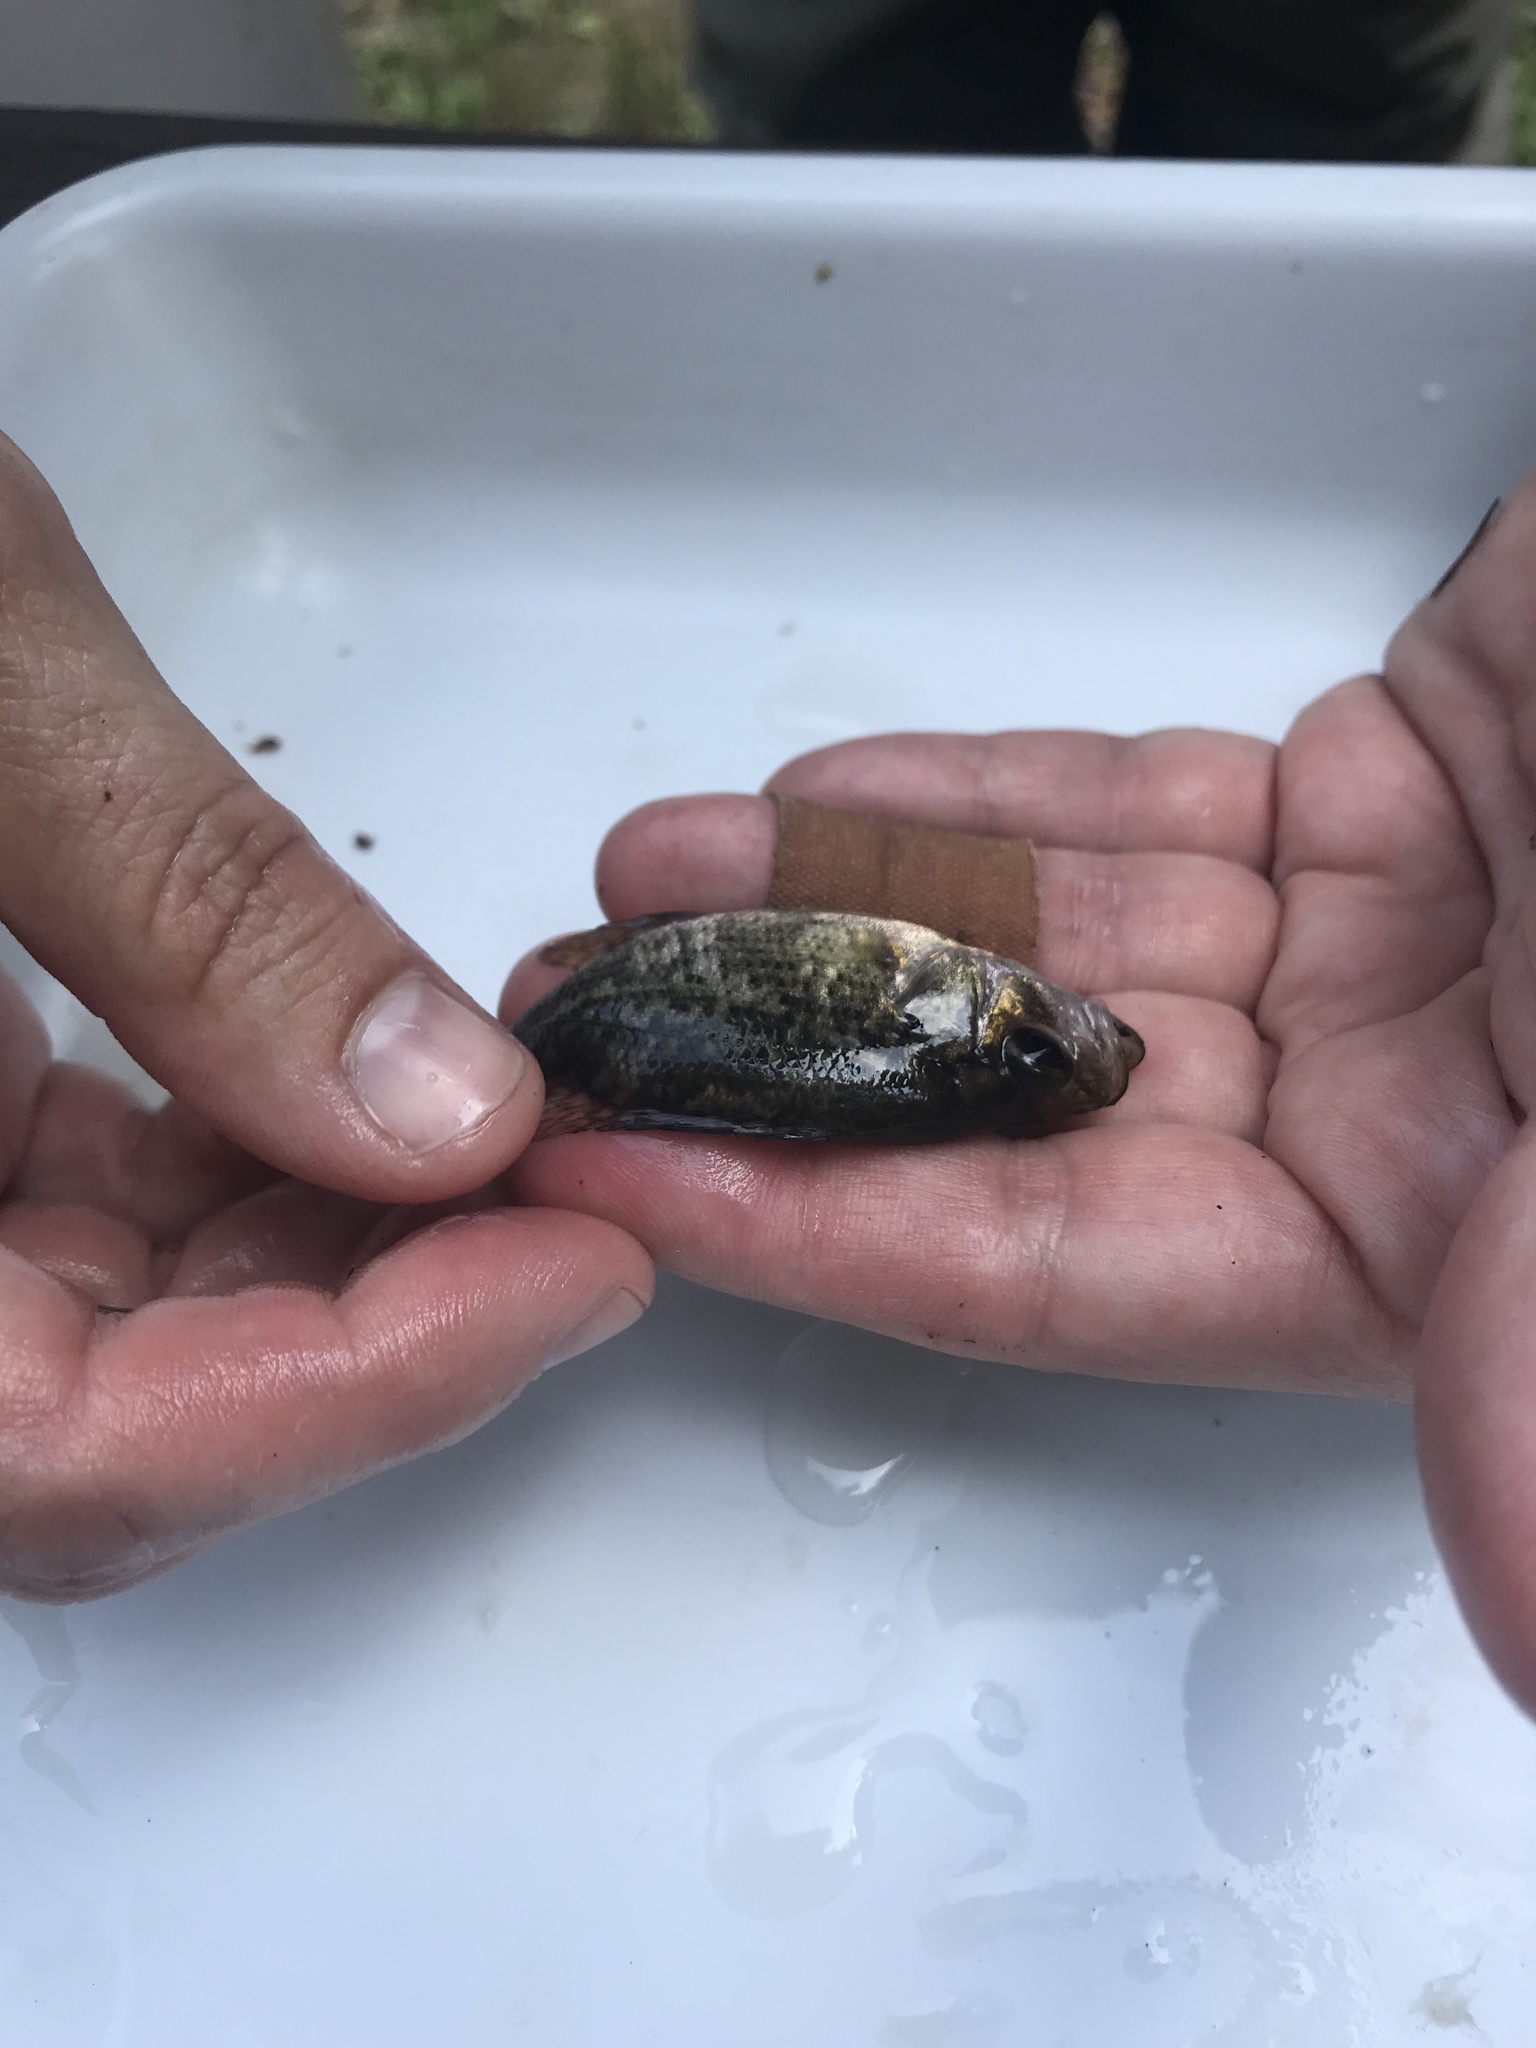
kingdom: Animalia
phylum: Chordata
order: Perciformes
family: Centrarchidae
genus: Ambloplites
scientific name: Ambloplites rupestris
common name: Rock bass
